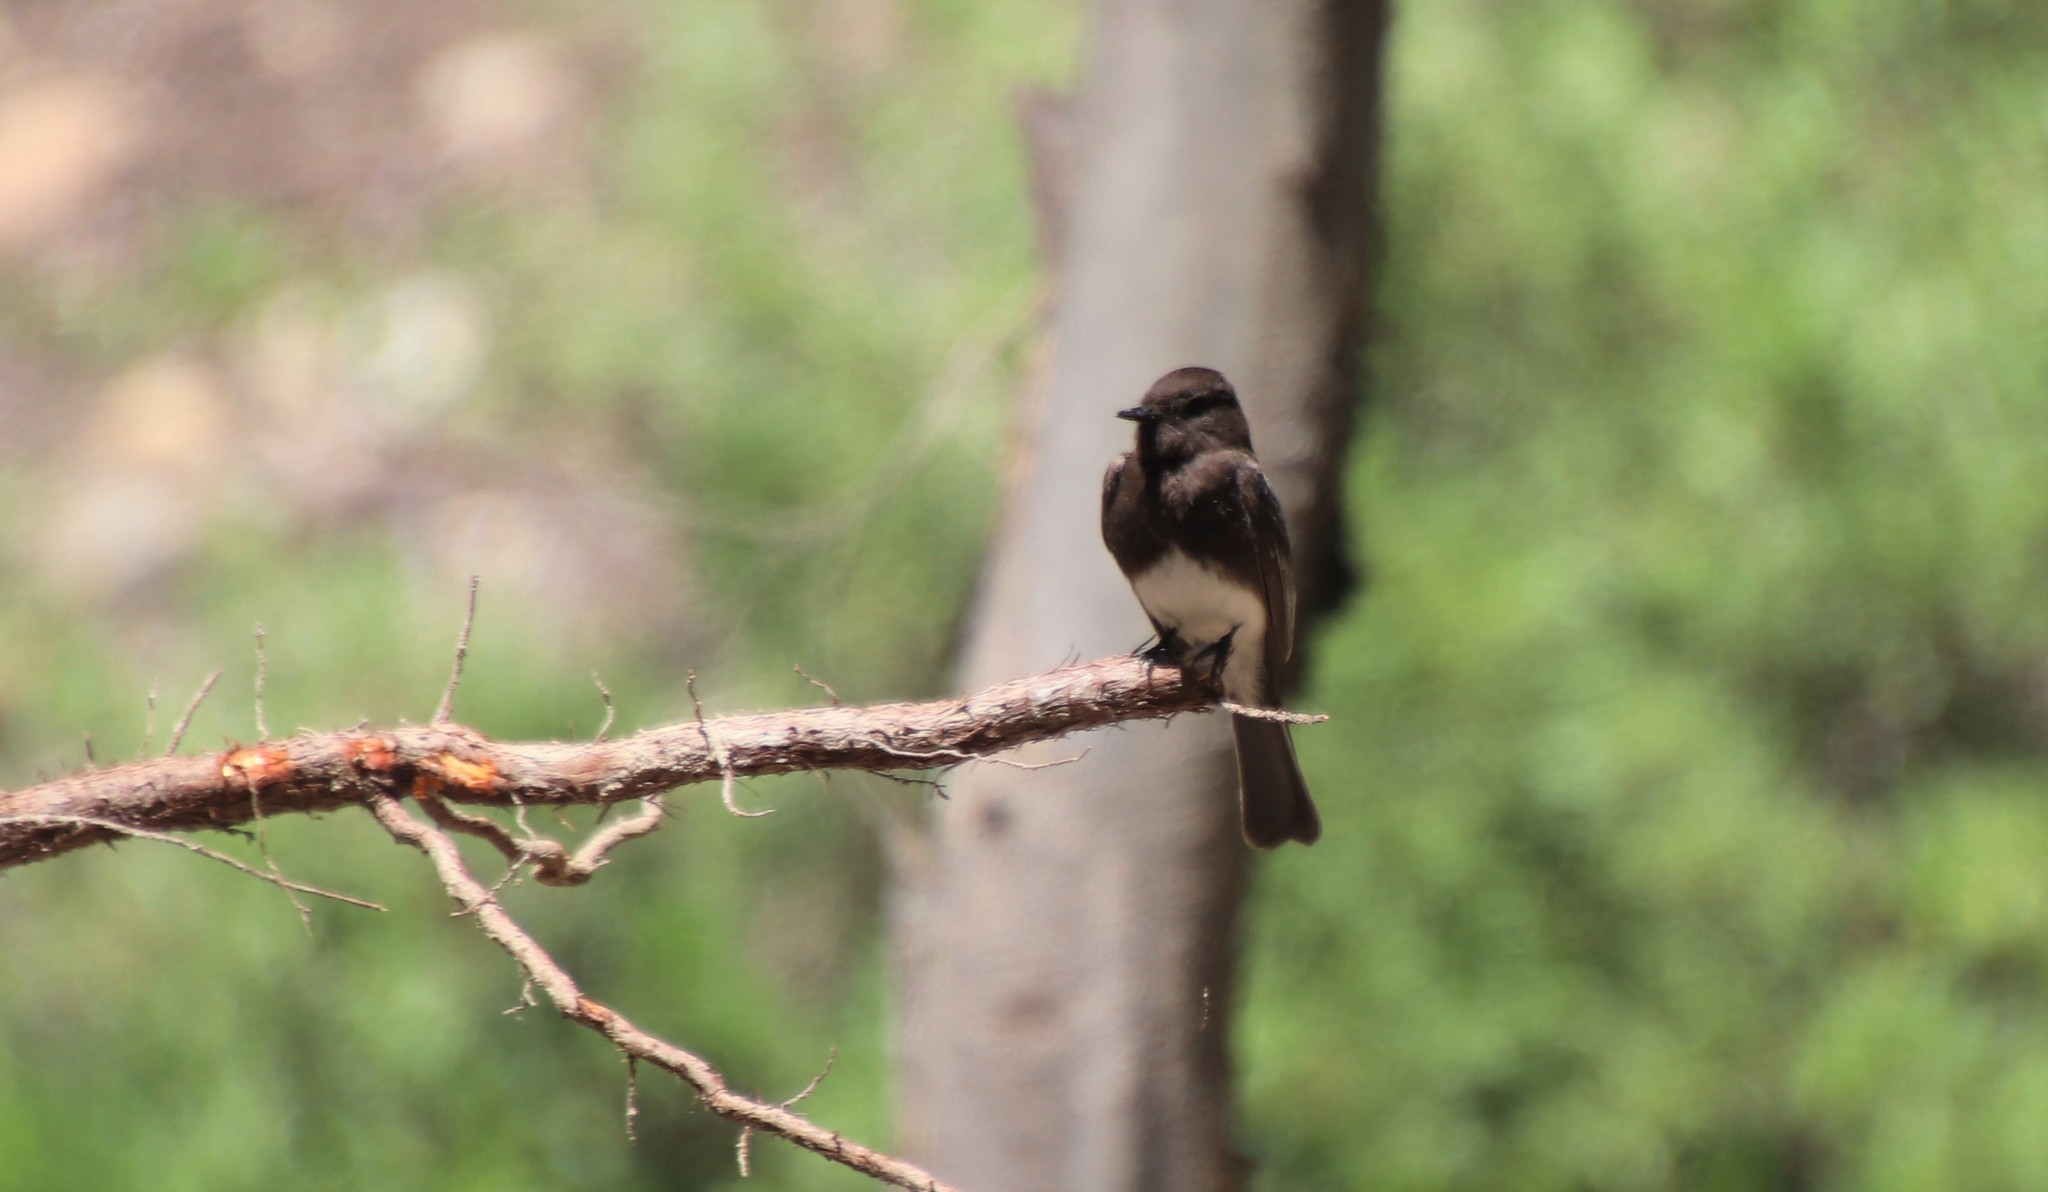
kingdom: Animalia
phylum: Chordata
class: Aves
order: Passeriformes
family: Tyrannidae
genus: Sayornis
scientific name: Sayornis nigricans
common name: Black phoebe
